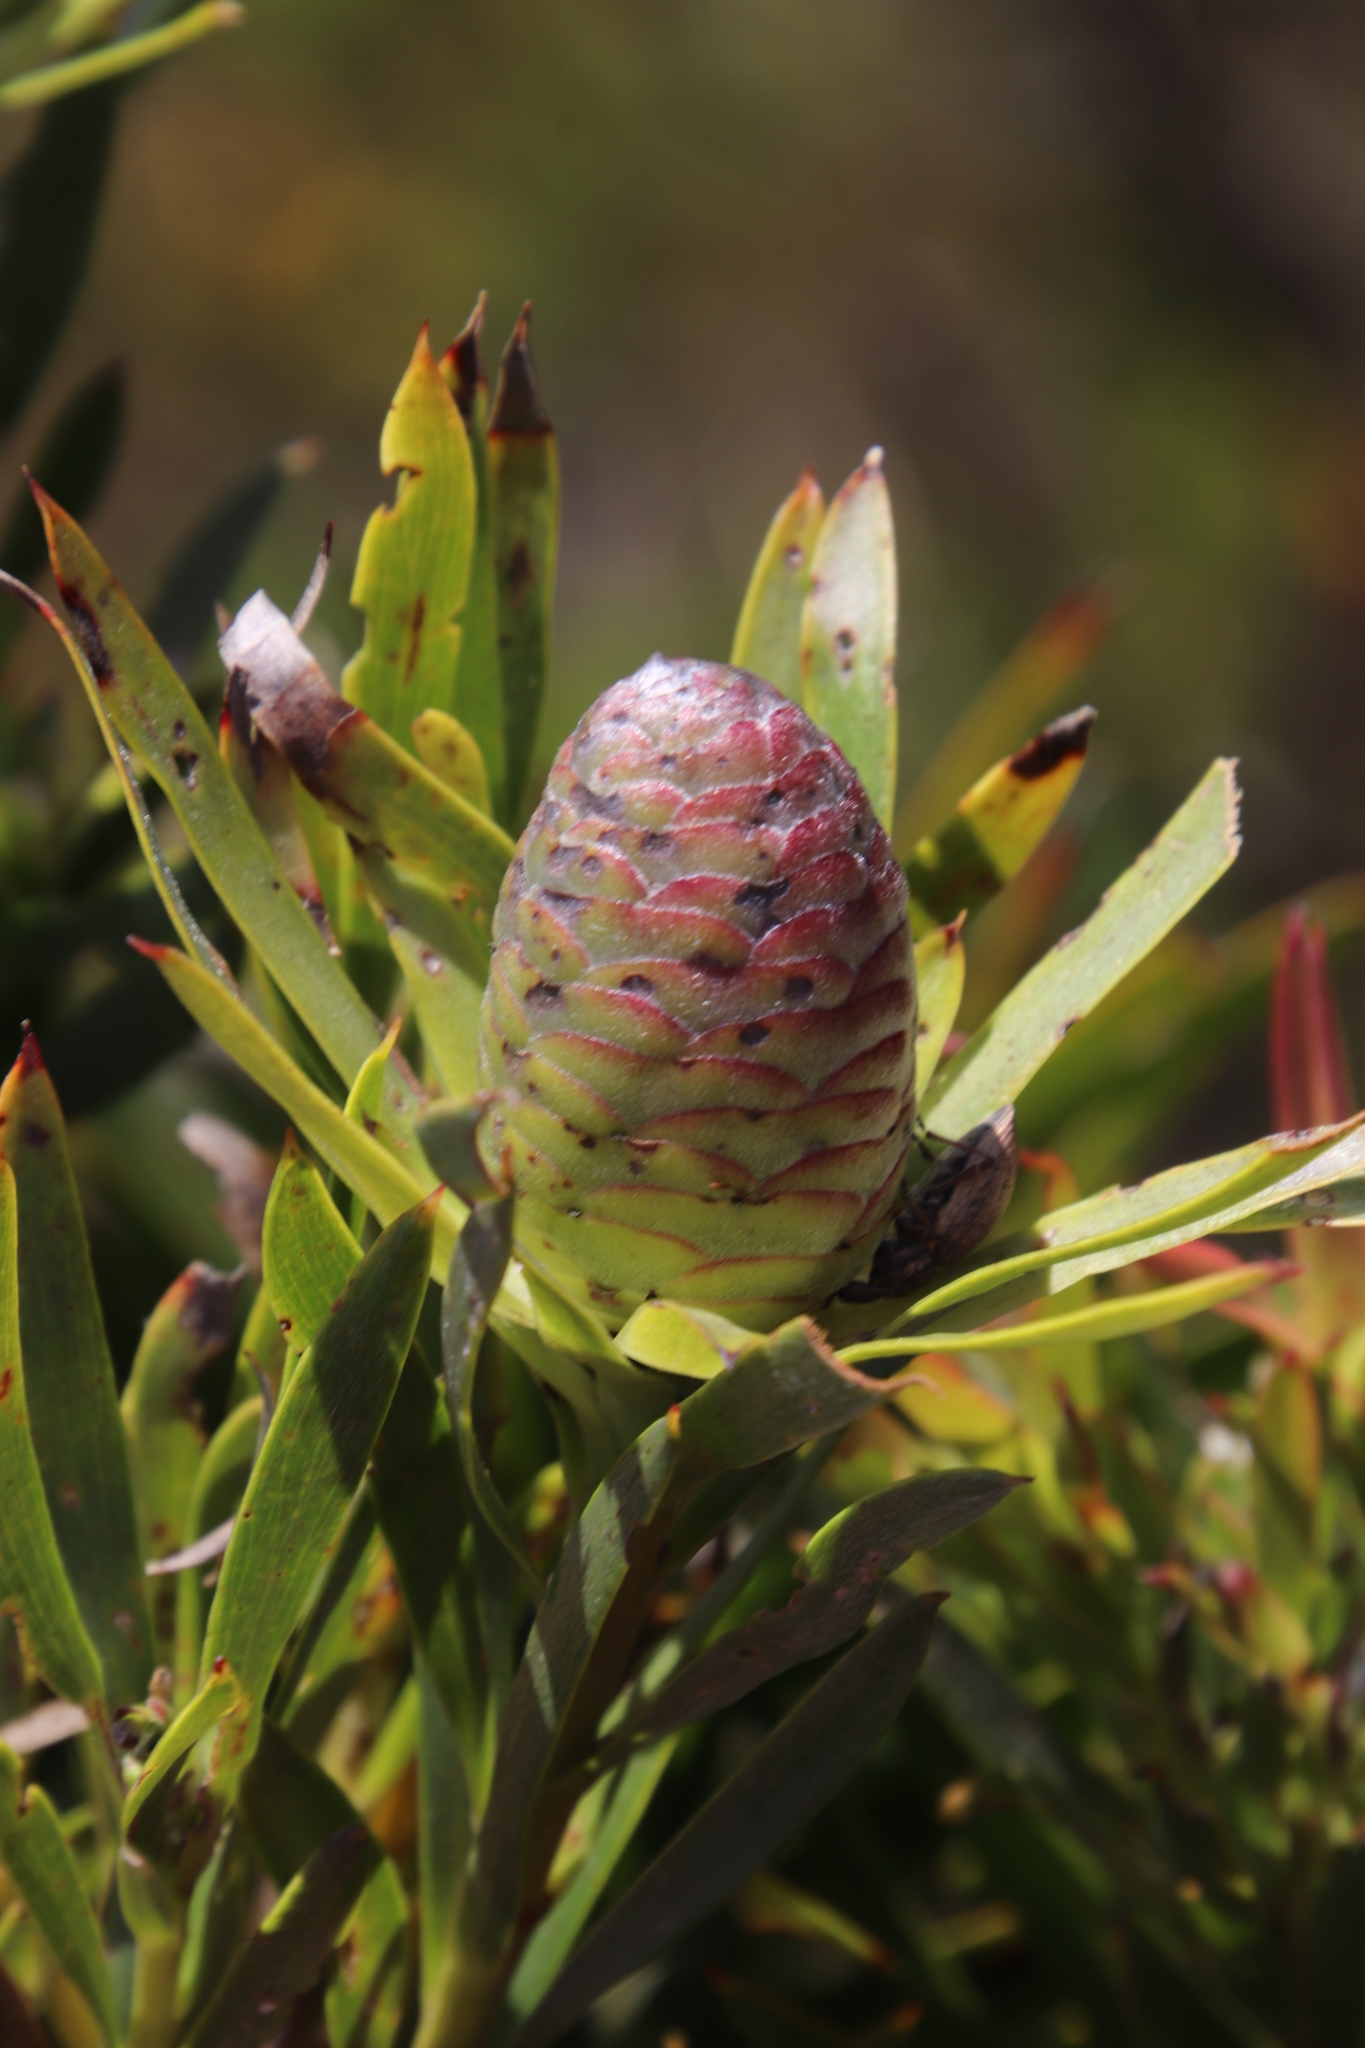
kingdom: Plantae
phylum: Tracheophyta
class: Magnoliopsida
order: Proteales
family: Proteaceae
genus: Leucadendron
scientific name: Leucadendron xanthoconus
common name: Sickle-leaf conebush
